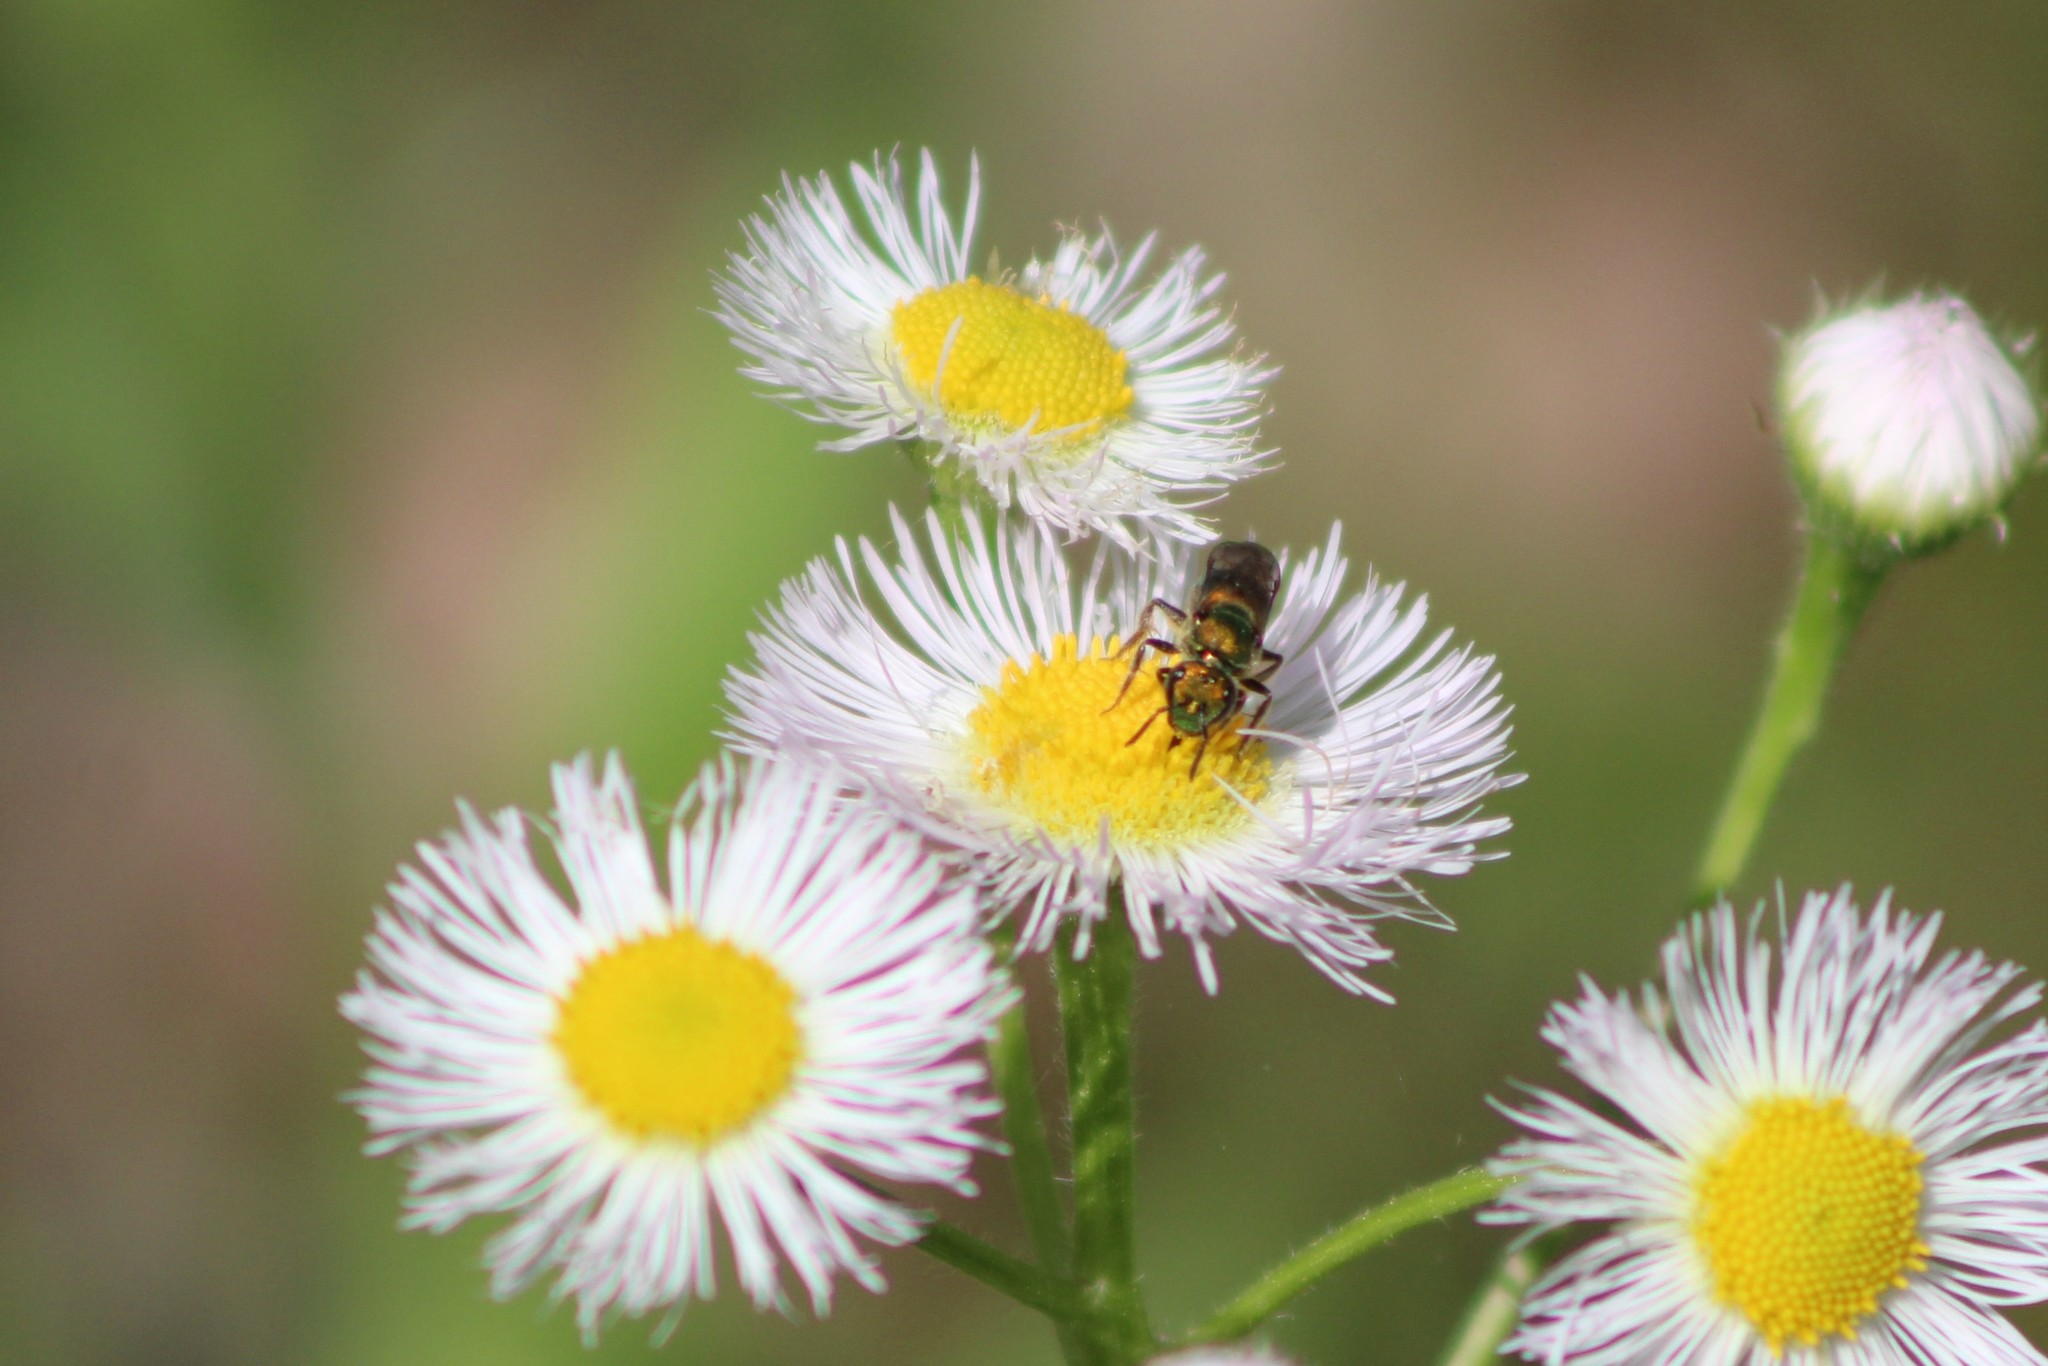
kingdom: Animalia
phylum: Arthropoda
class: Insecta
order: Hymenoptera
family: Halictidae
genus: Augochlora
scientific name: Augochlora pura
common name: Pure green sweat bee
